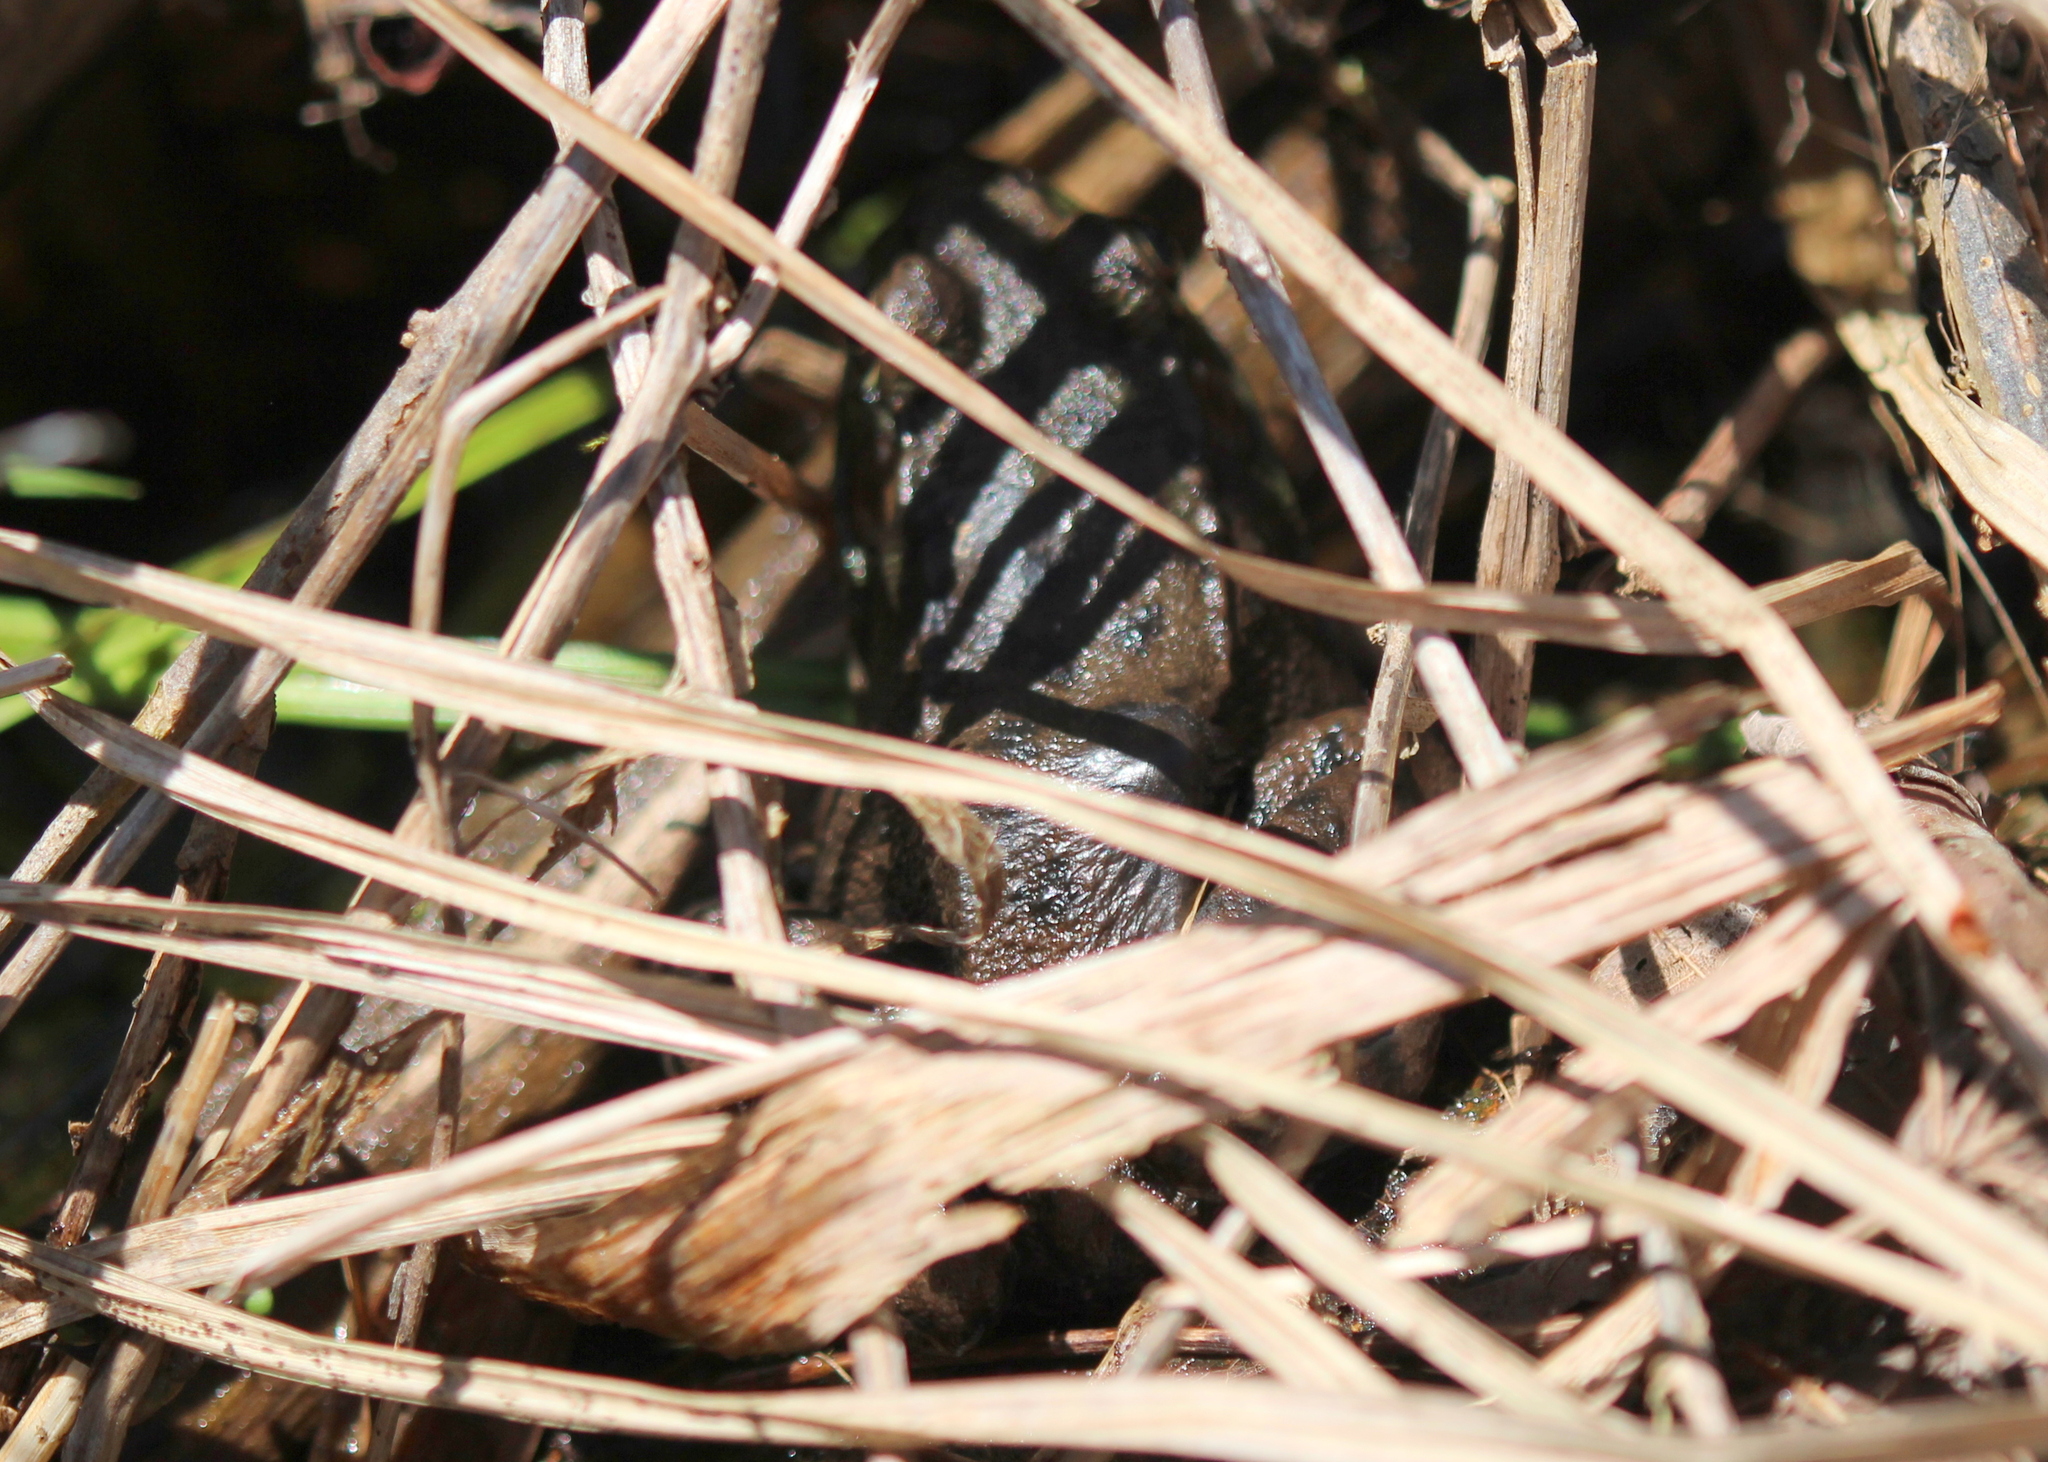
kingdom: Animalia
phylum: Chordata
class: Amphibia
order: Anura
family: Ranidae
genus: Lithobates
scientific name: Lithobates clamitans
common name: Green frog
